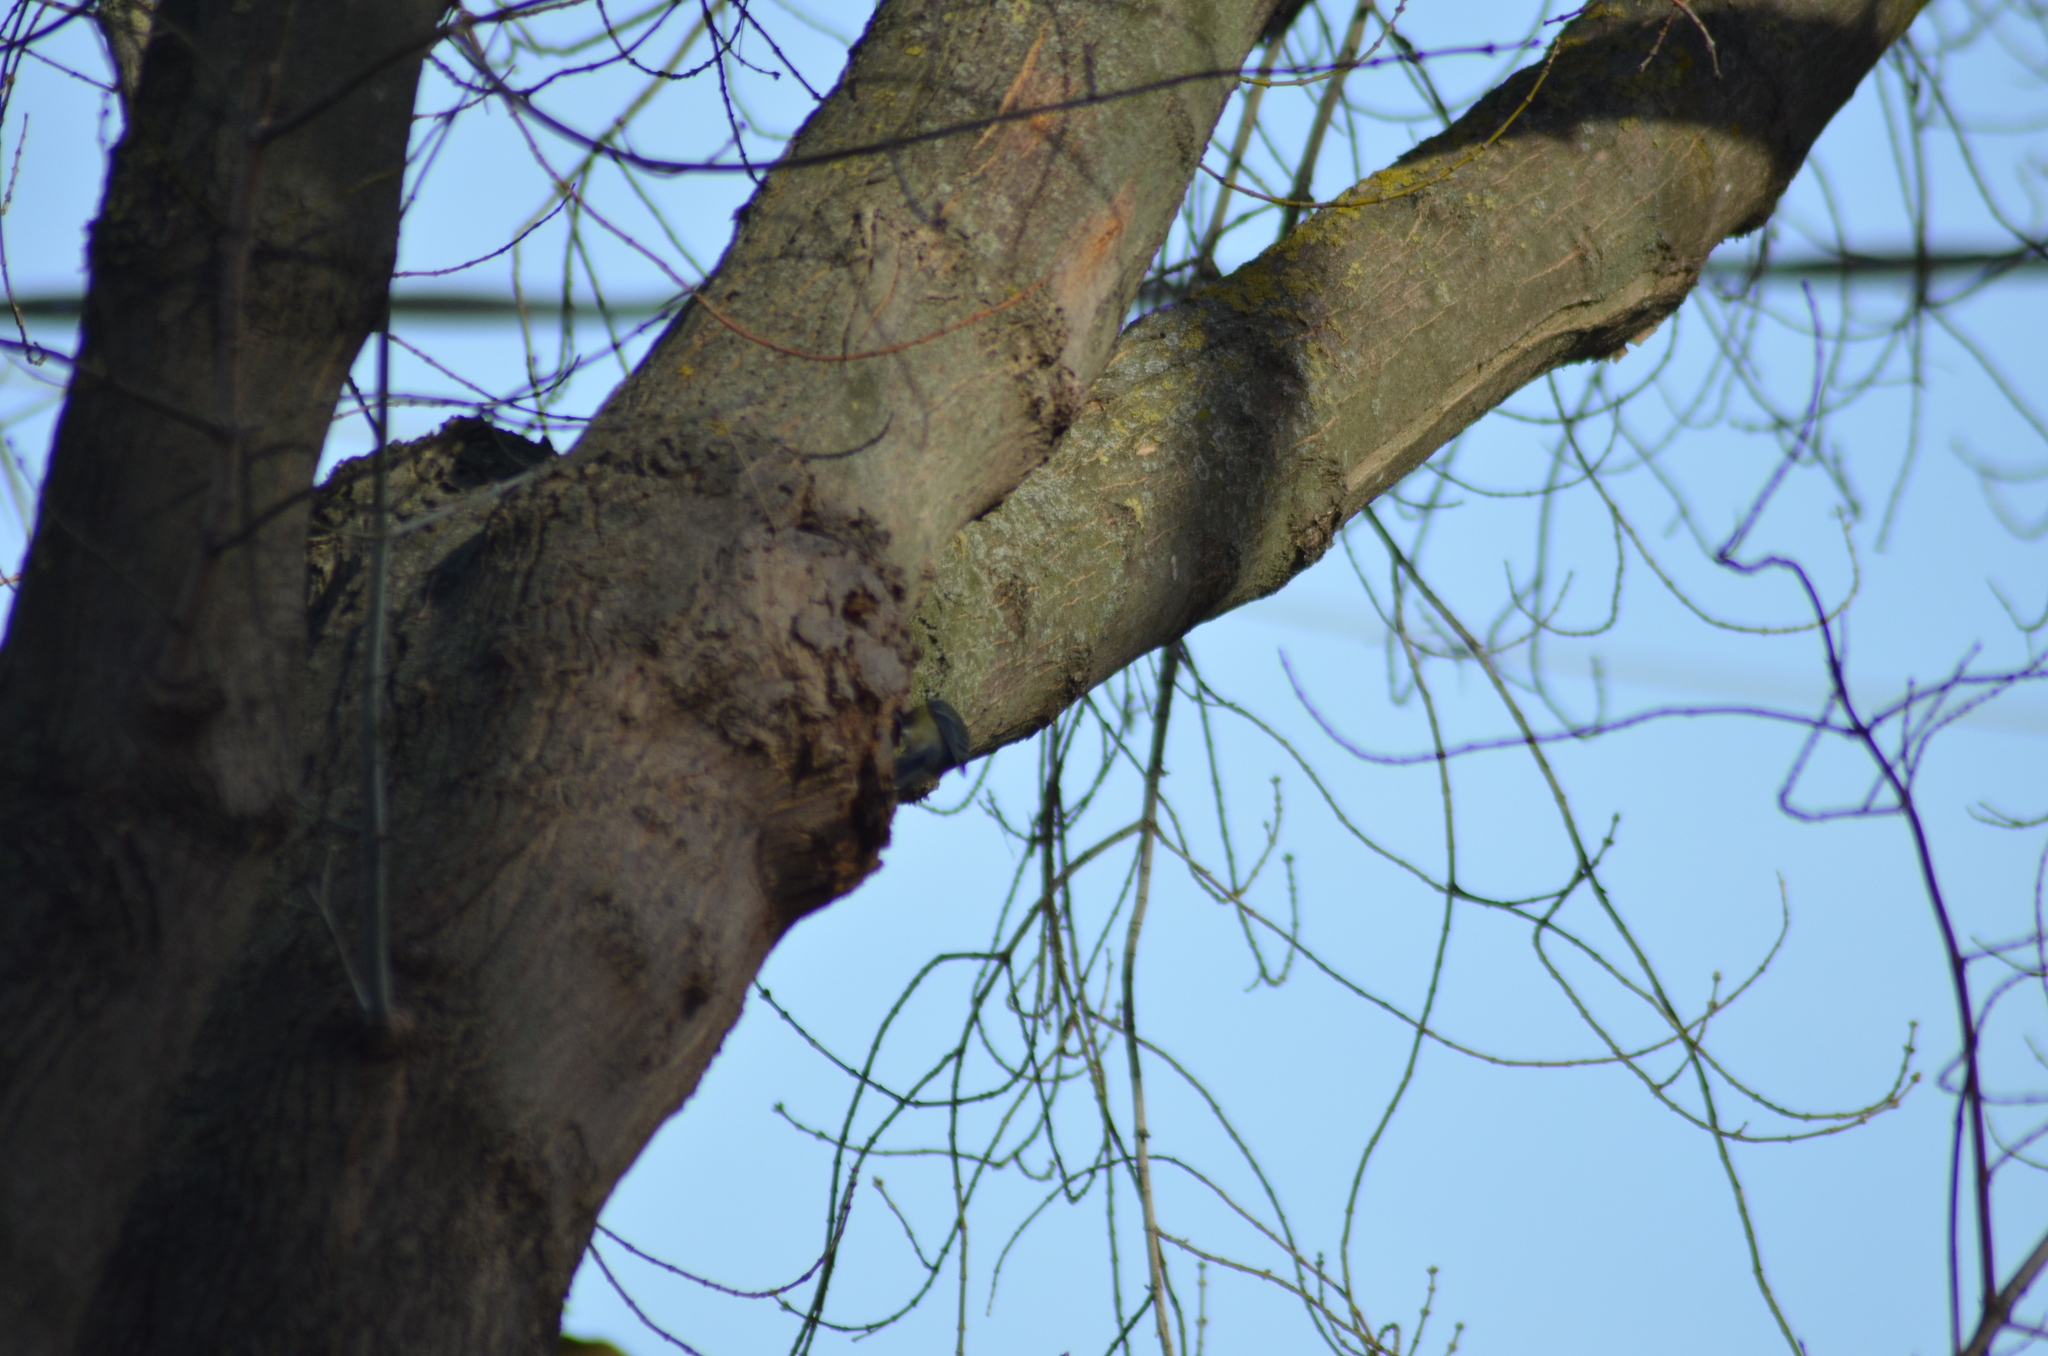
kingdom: Animalia
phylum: Chordata
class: Aves
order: Passeriformes
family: Paridae
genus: Parus
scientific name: Parus major
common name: Great tit
